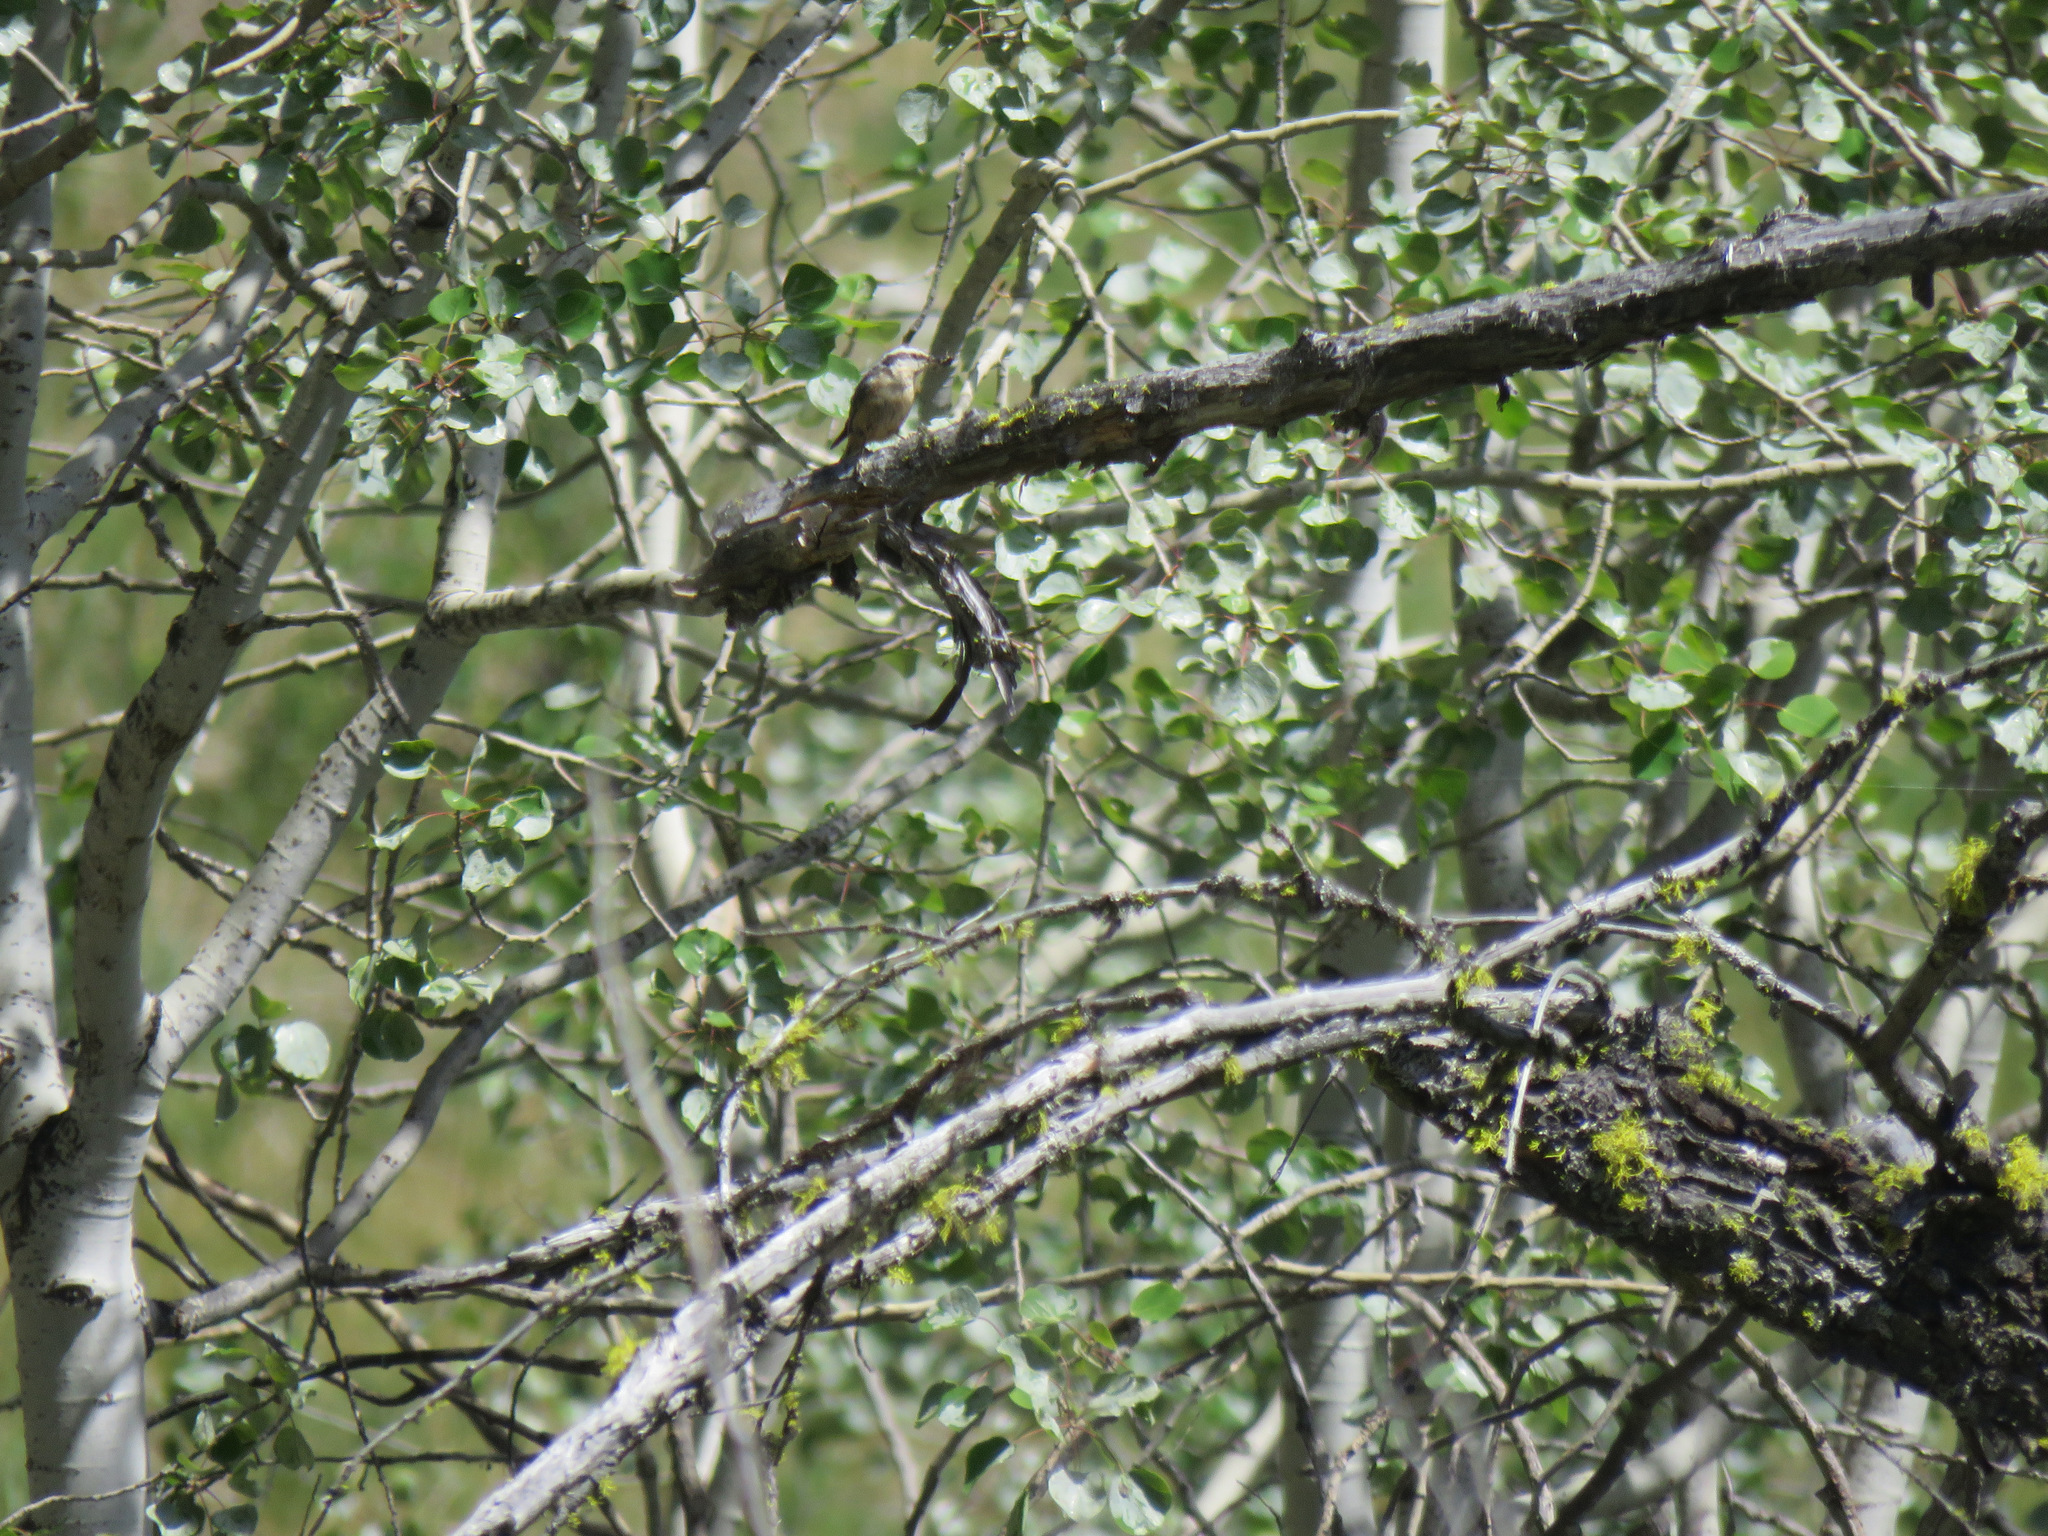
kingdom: Animalia
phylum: Chordata
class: Aves
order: Passeriformes
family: Sittidae
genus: Sitta
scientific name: Sitta canadensis
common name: Red-breasted nuthatch
